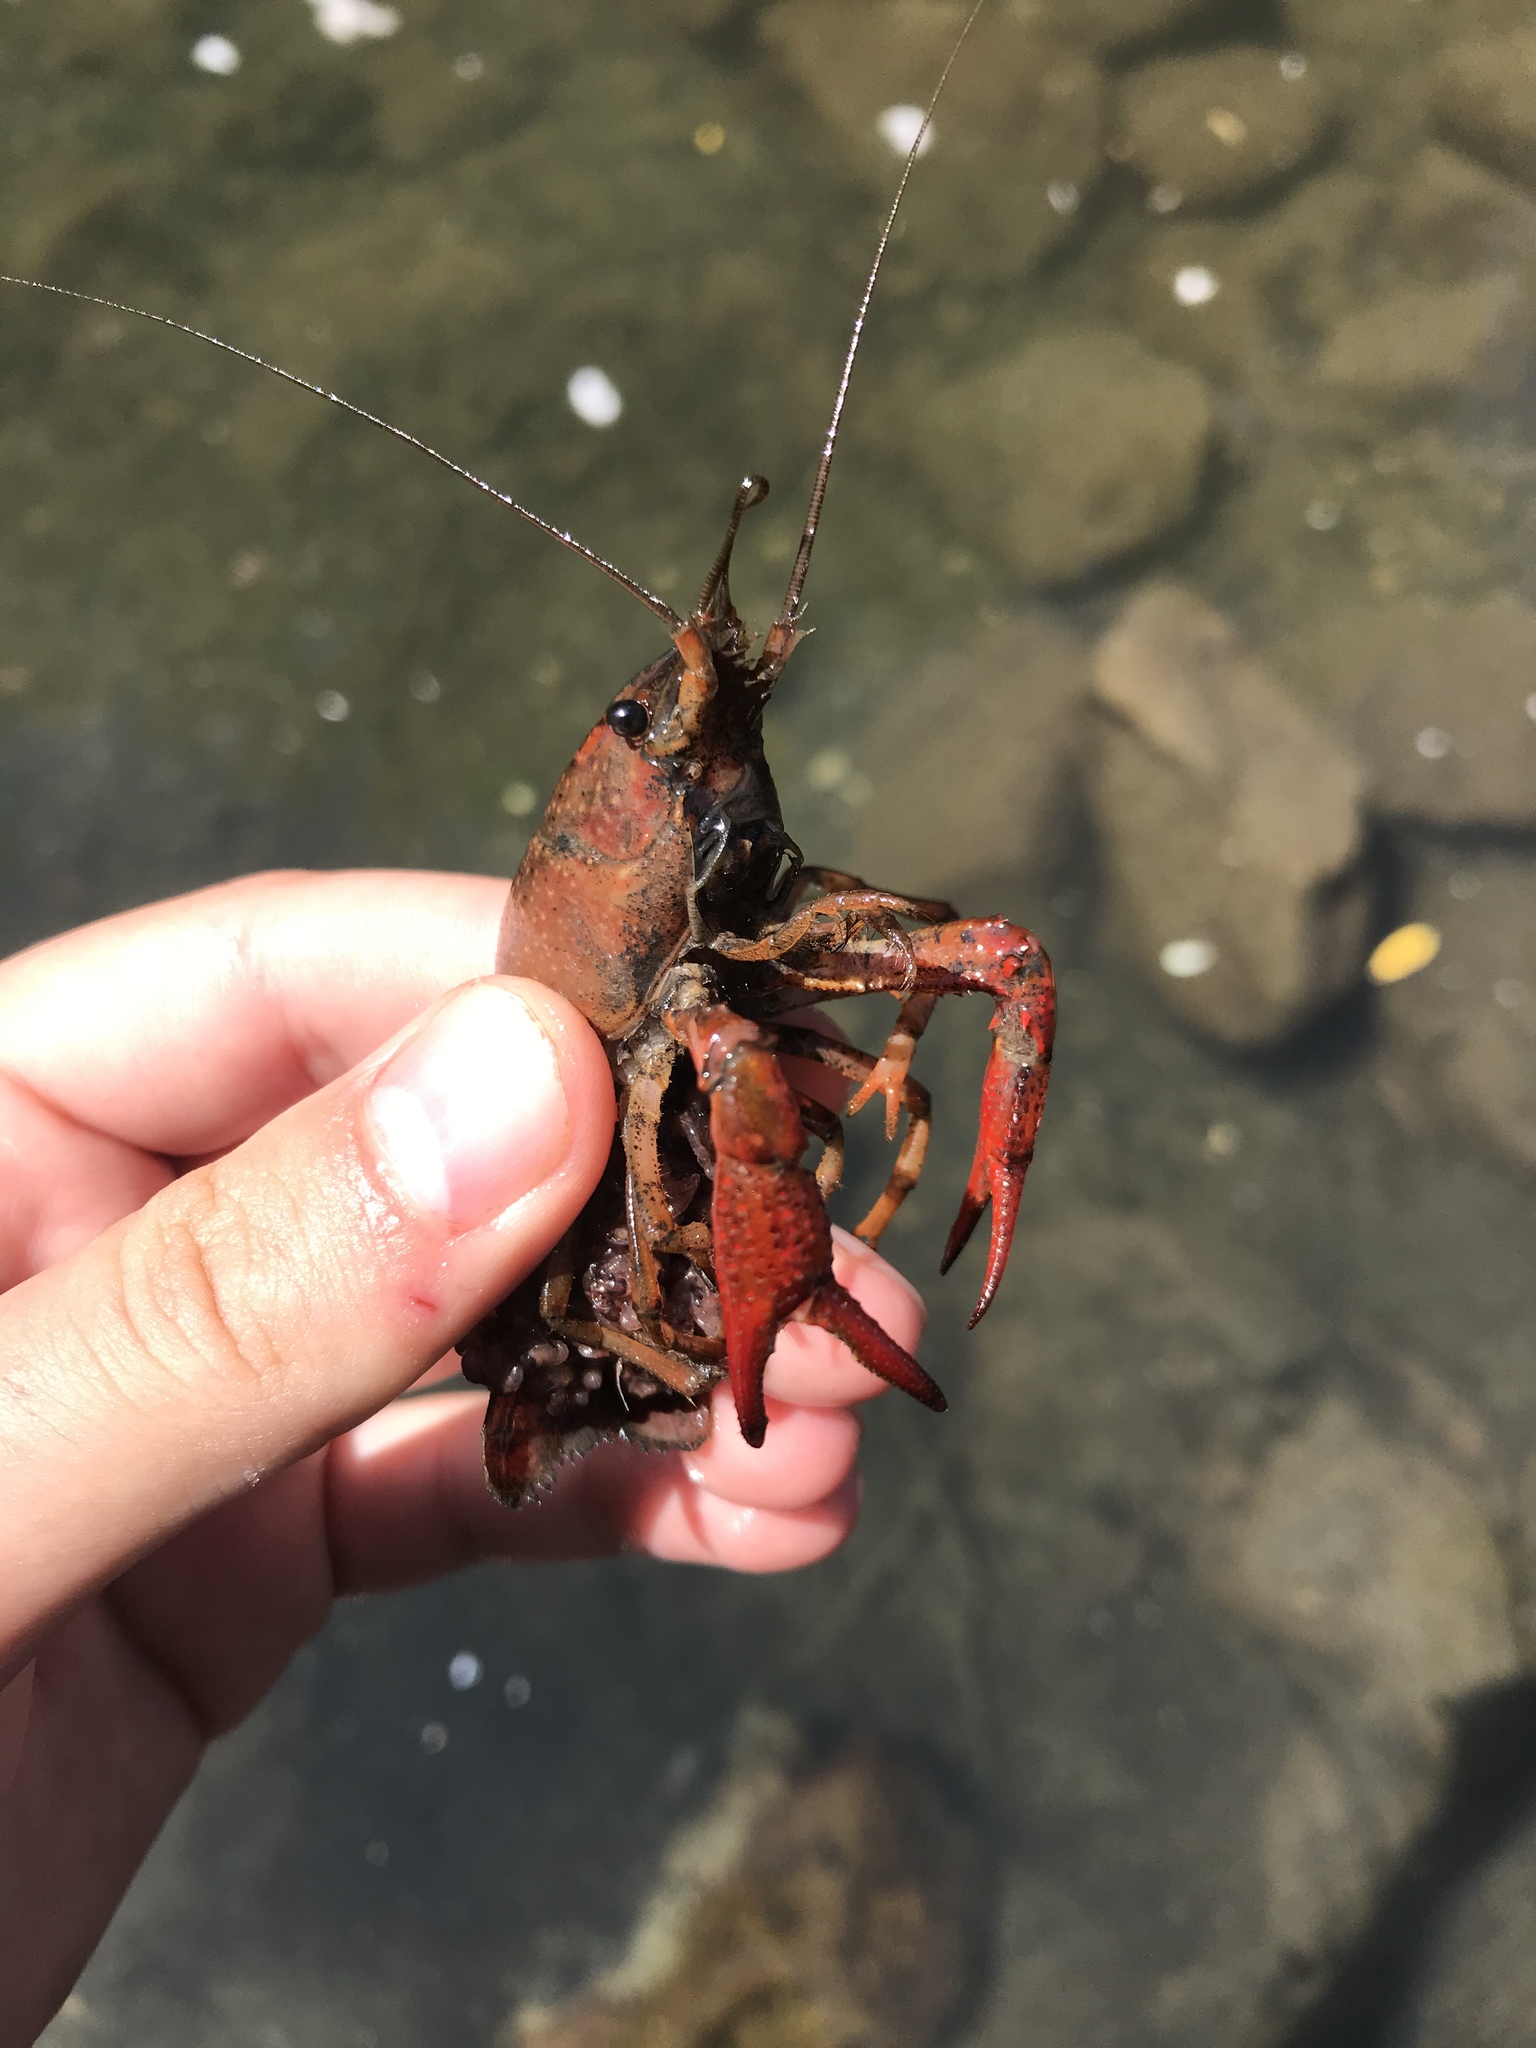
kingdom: Animalia
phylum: Arthropoda
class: Malacostraca
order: Decapoda
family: Cambaridae
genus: Procambarus
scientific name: Procambarus clarkii
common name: Red swamp crayfish
